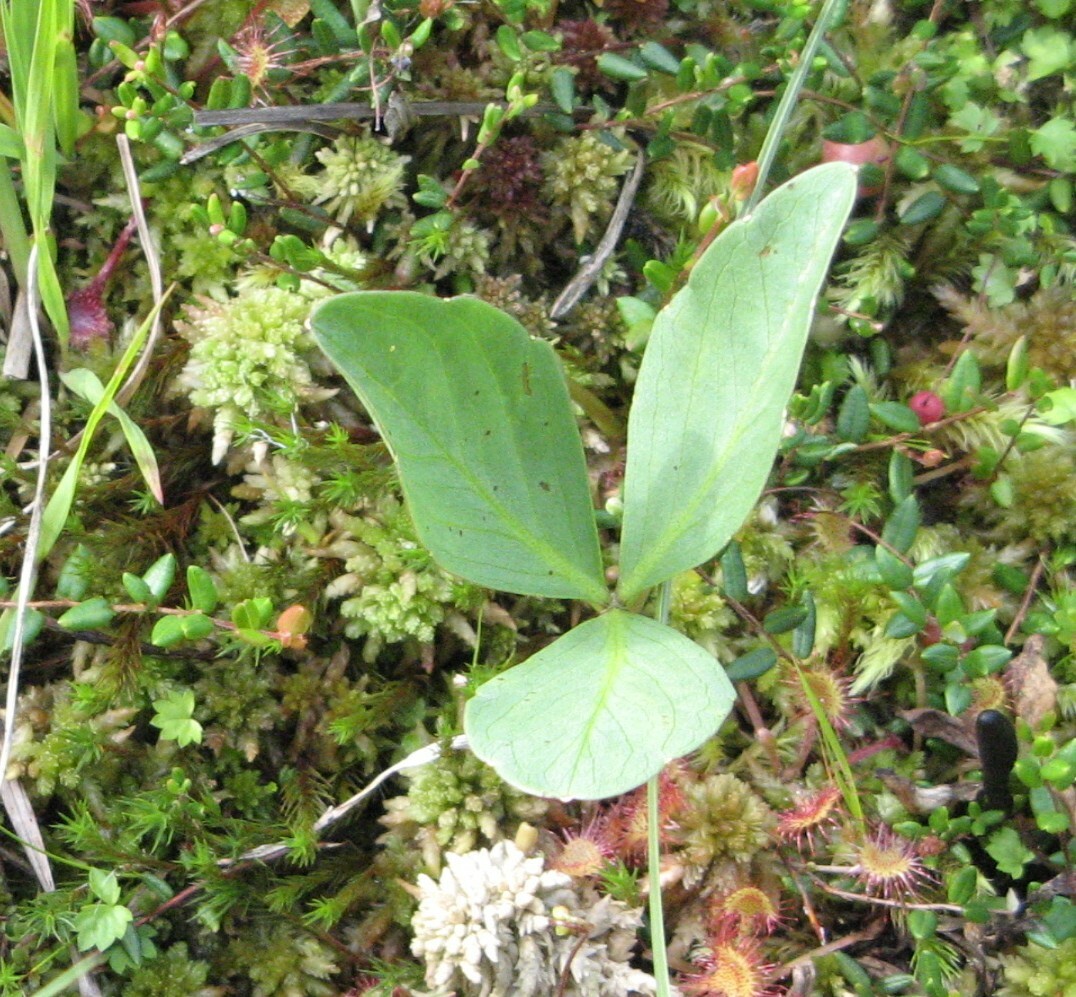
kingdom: Plantae
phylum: Tracheophyta
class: Magnoliopsida
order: Asterales
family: Menyanthaceae
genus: Menyanthes
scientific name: Menyanthes trifoliata
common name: Bogbean
